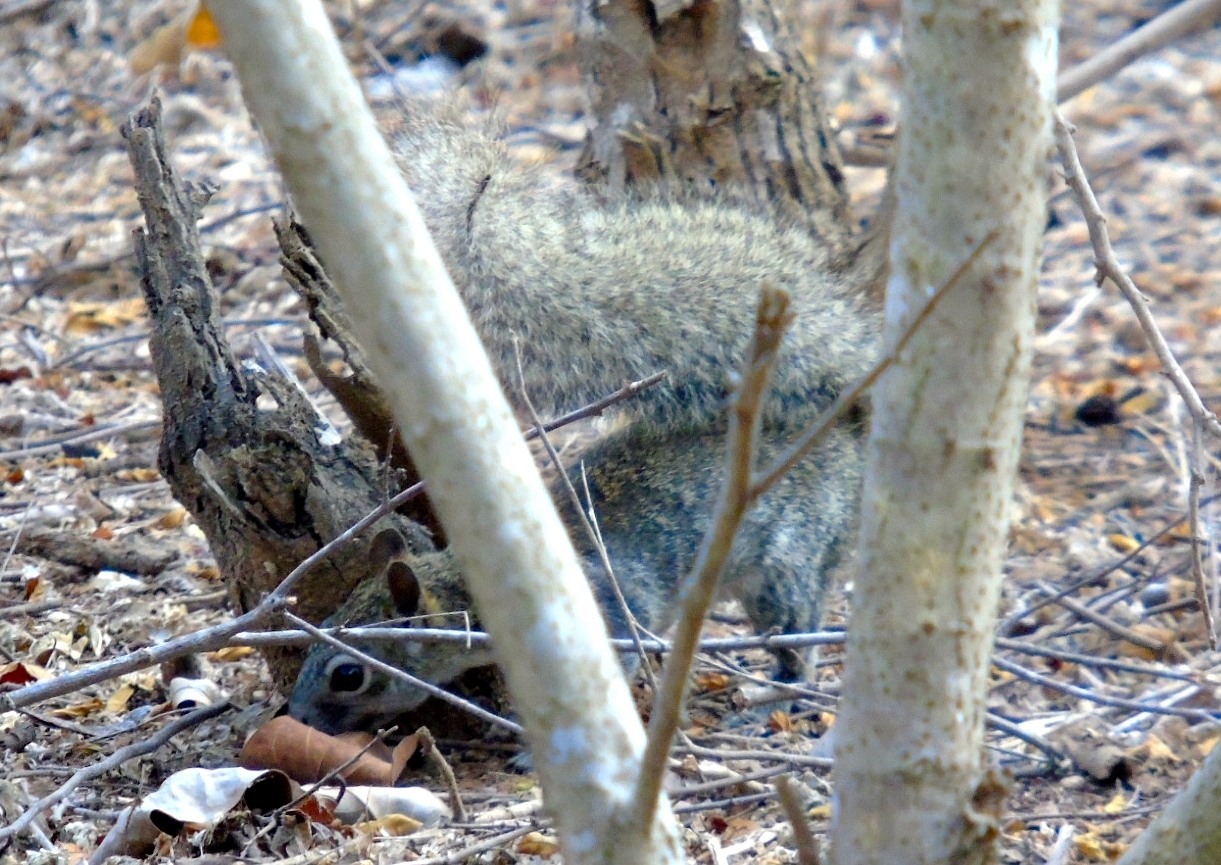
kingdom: Animalia
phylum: Chordata
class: Mammalia
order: Rodentia
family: Sciuridae
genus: Sciurus
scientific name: Sciurus colliaei
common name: Collie's squirrel
